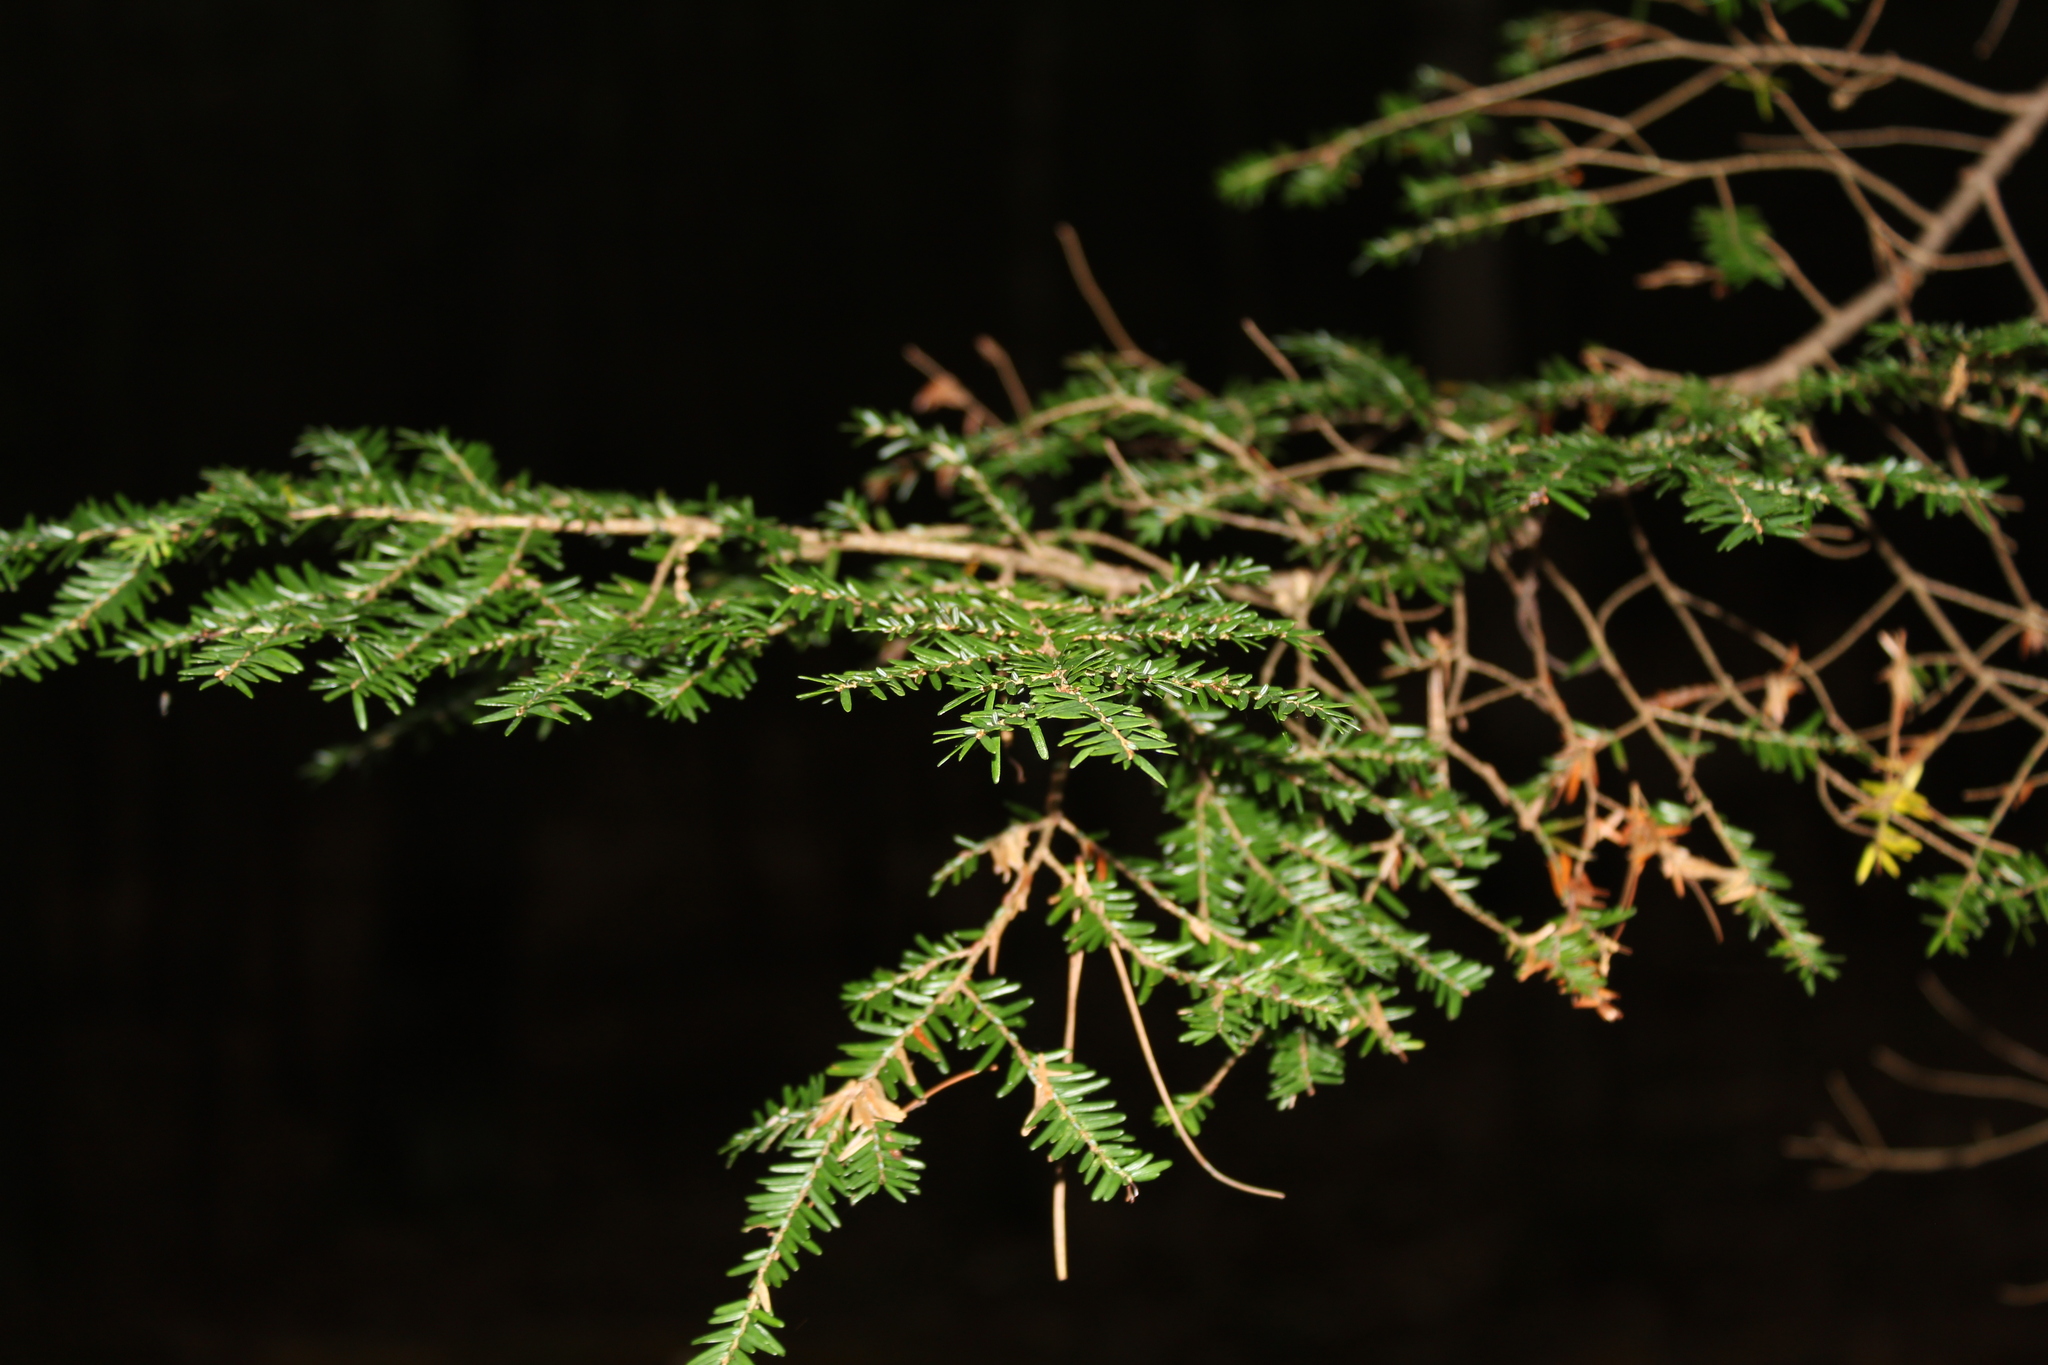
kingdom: Plantae
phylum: Tracheophyta
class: Pinopsida
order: Pinales
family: Pinaceae
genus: Tsuga
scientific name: Tsuga canadensis
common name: Eastern hemlock
